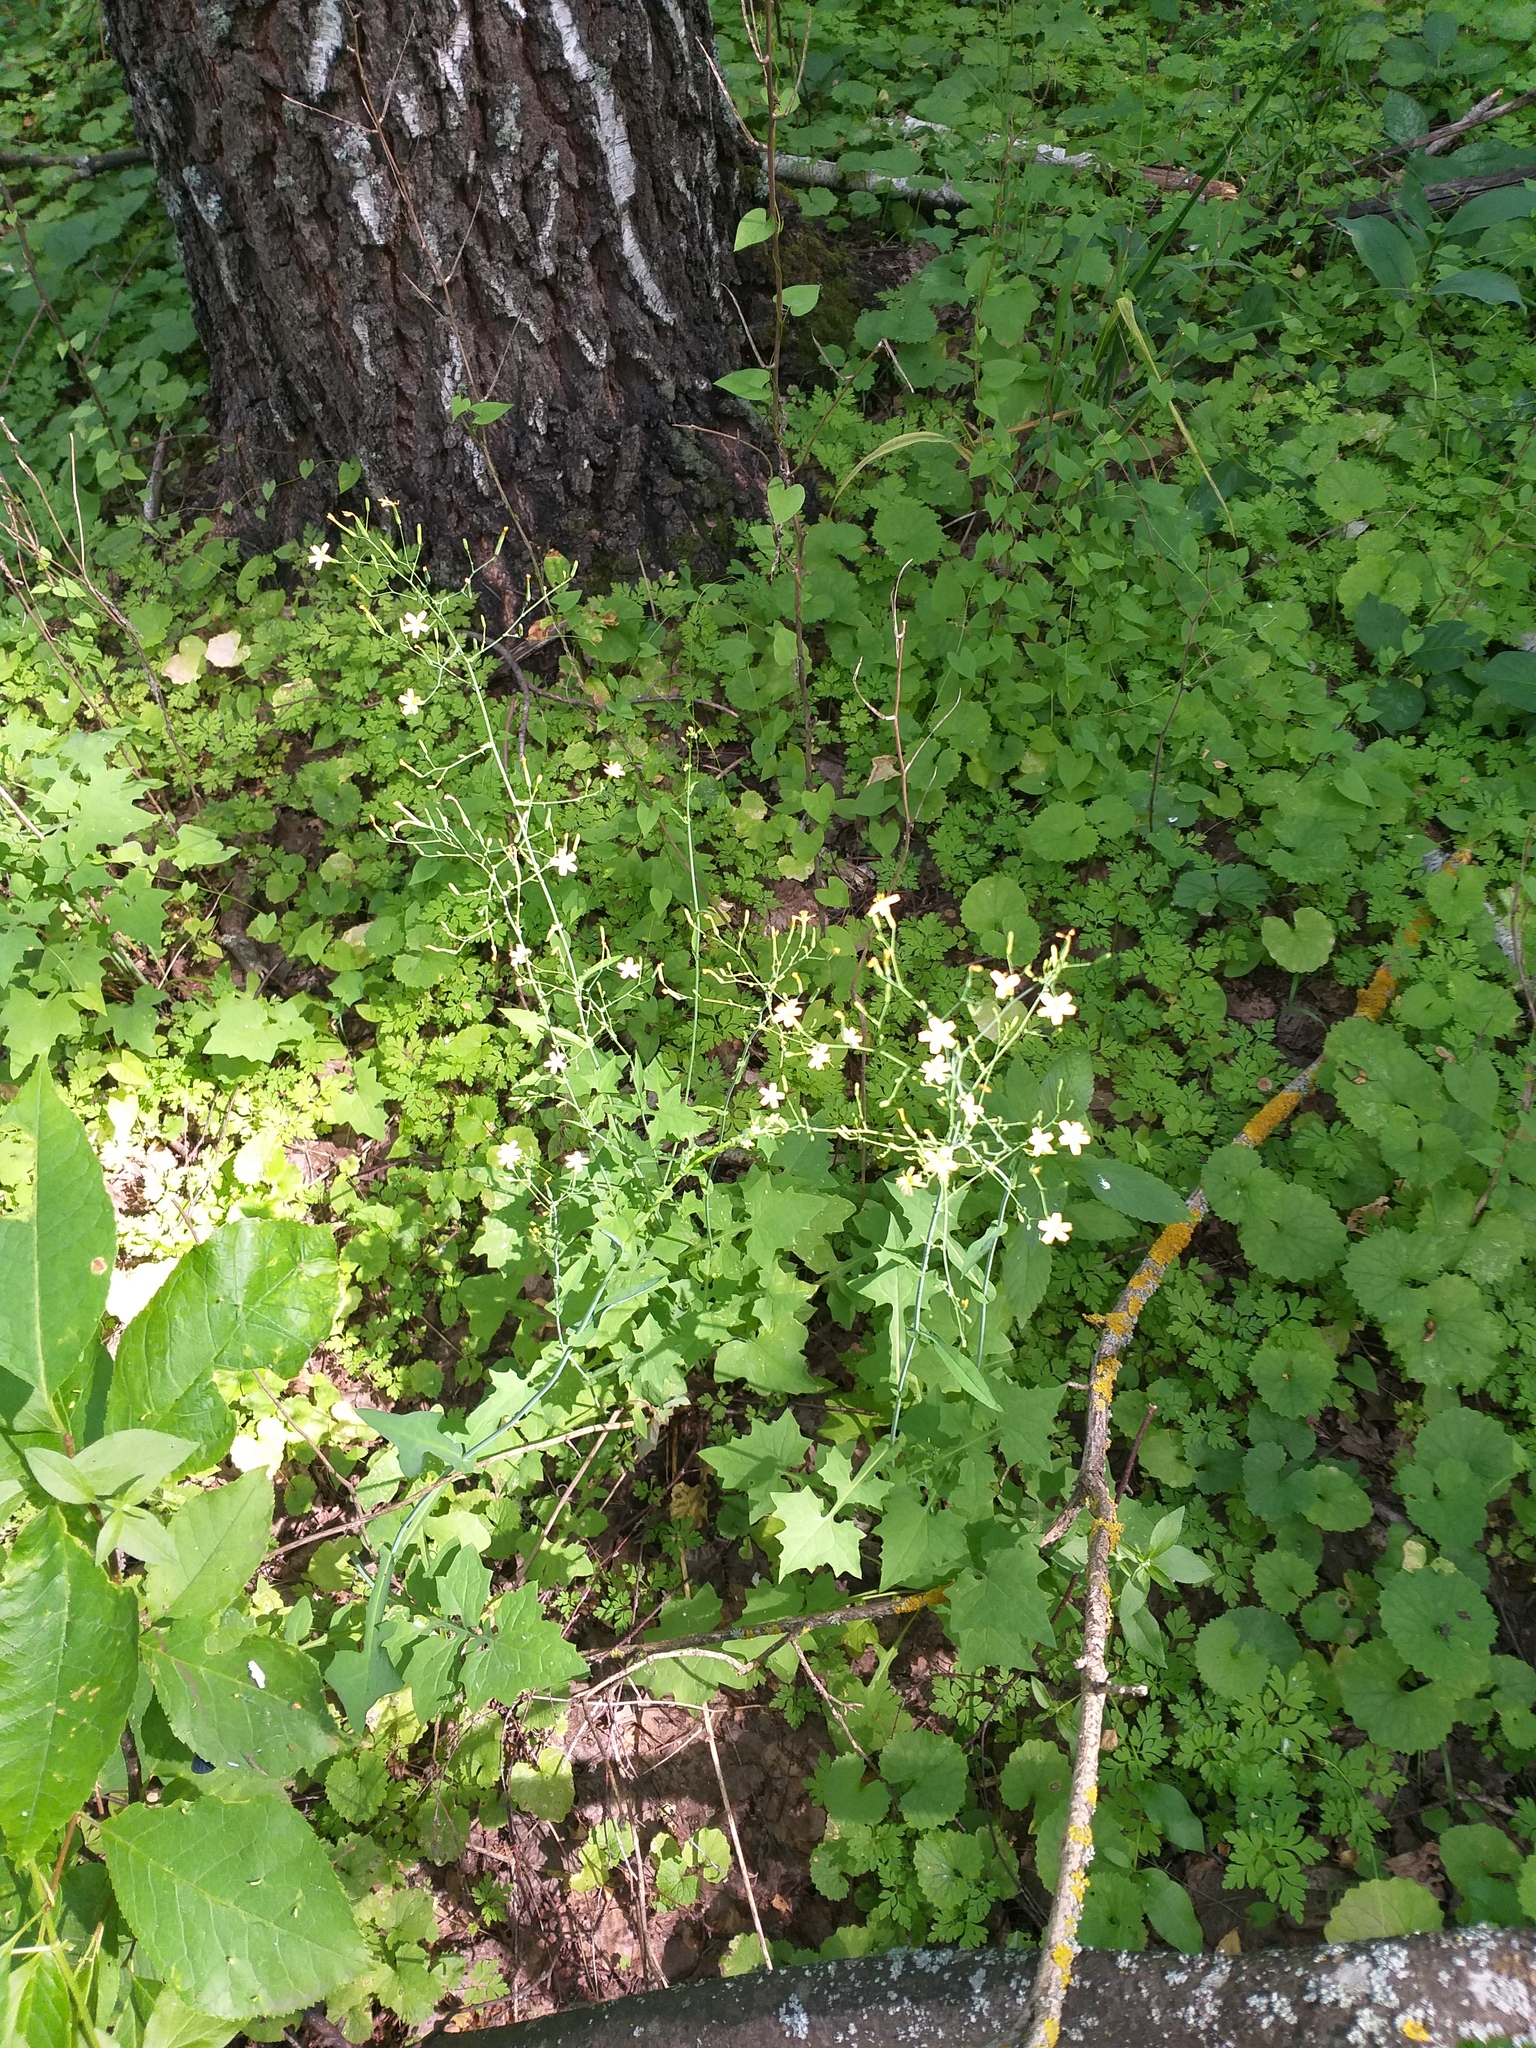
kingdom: Plantae
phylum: Tracheophyta
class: Magnoliopsida
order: Asterales
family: Asteraceae
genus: Mycelis
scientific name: Mycelis muralis
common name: Wall lettuce
